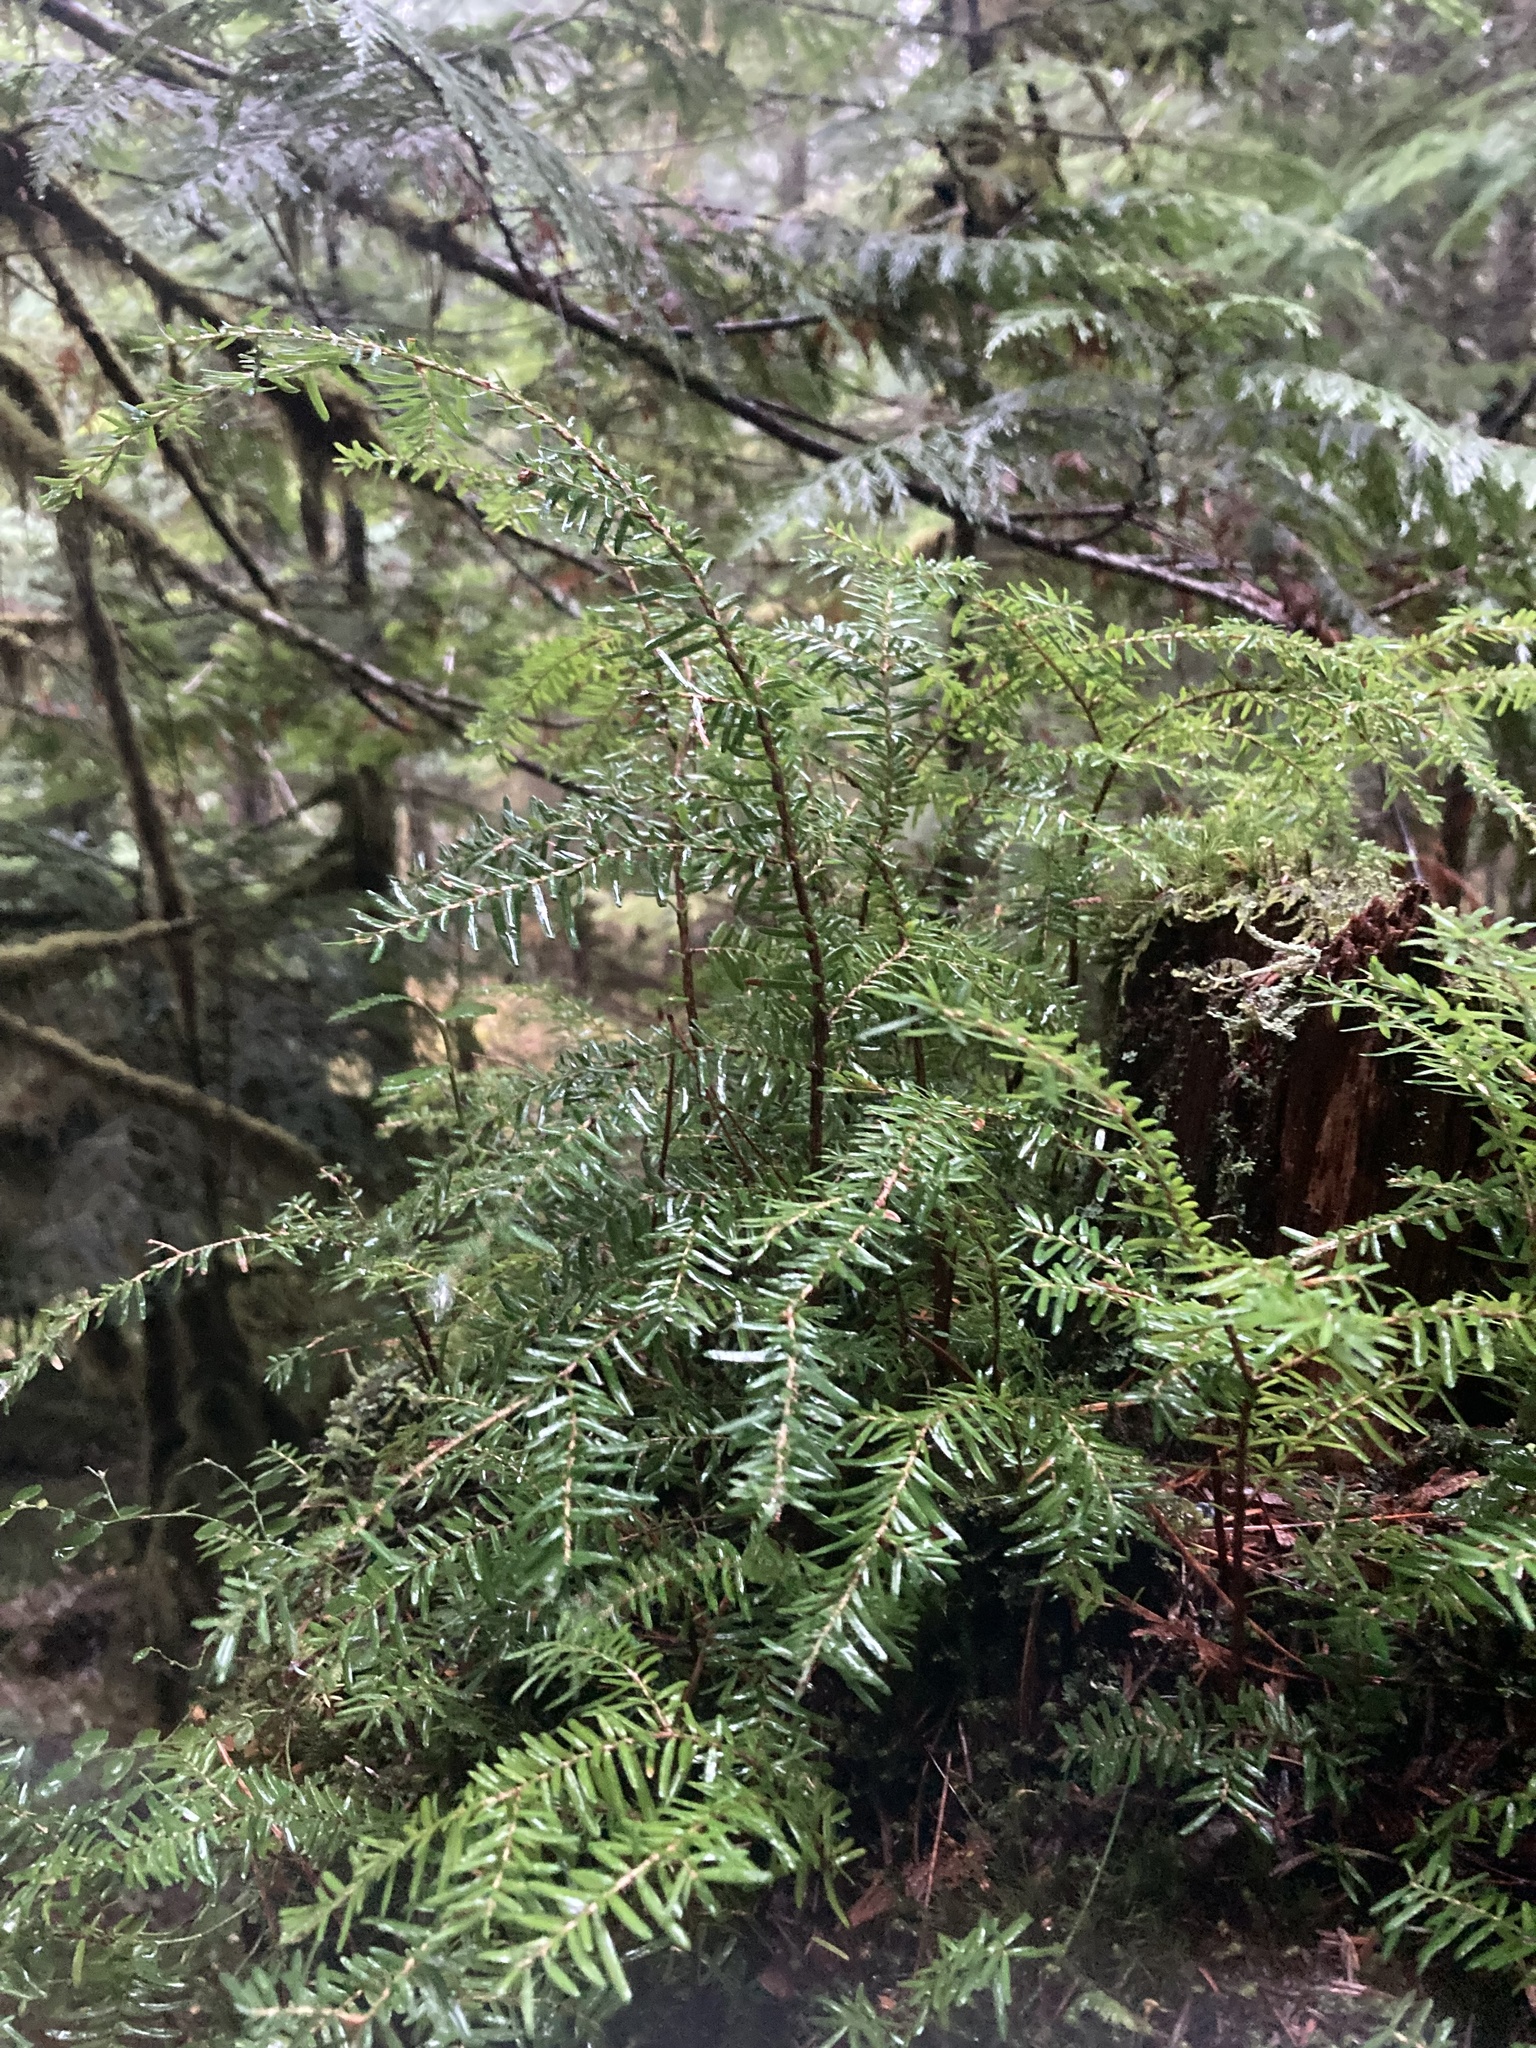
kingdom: Plantae
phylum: Tracheophyta
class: Pinopsida
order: Pinales
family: Pinaceae
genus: Tsuga
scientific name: Tsuga heterophylla
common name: Western hemlock
